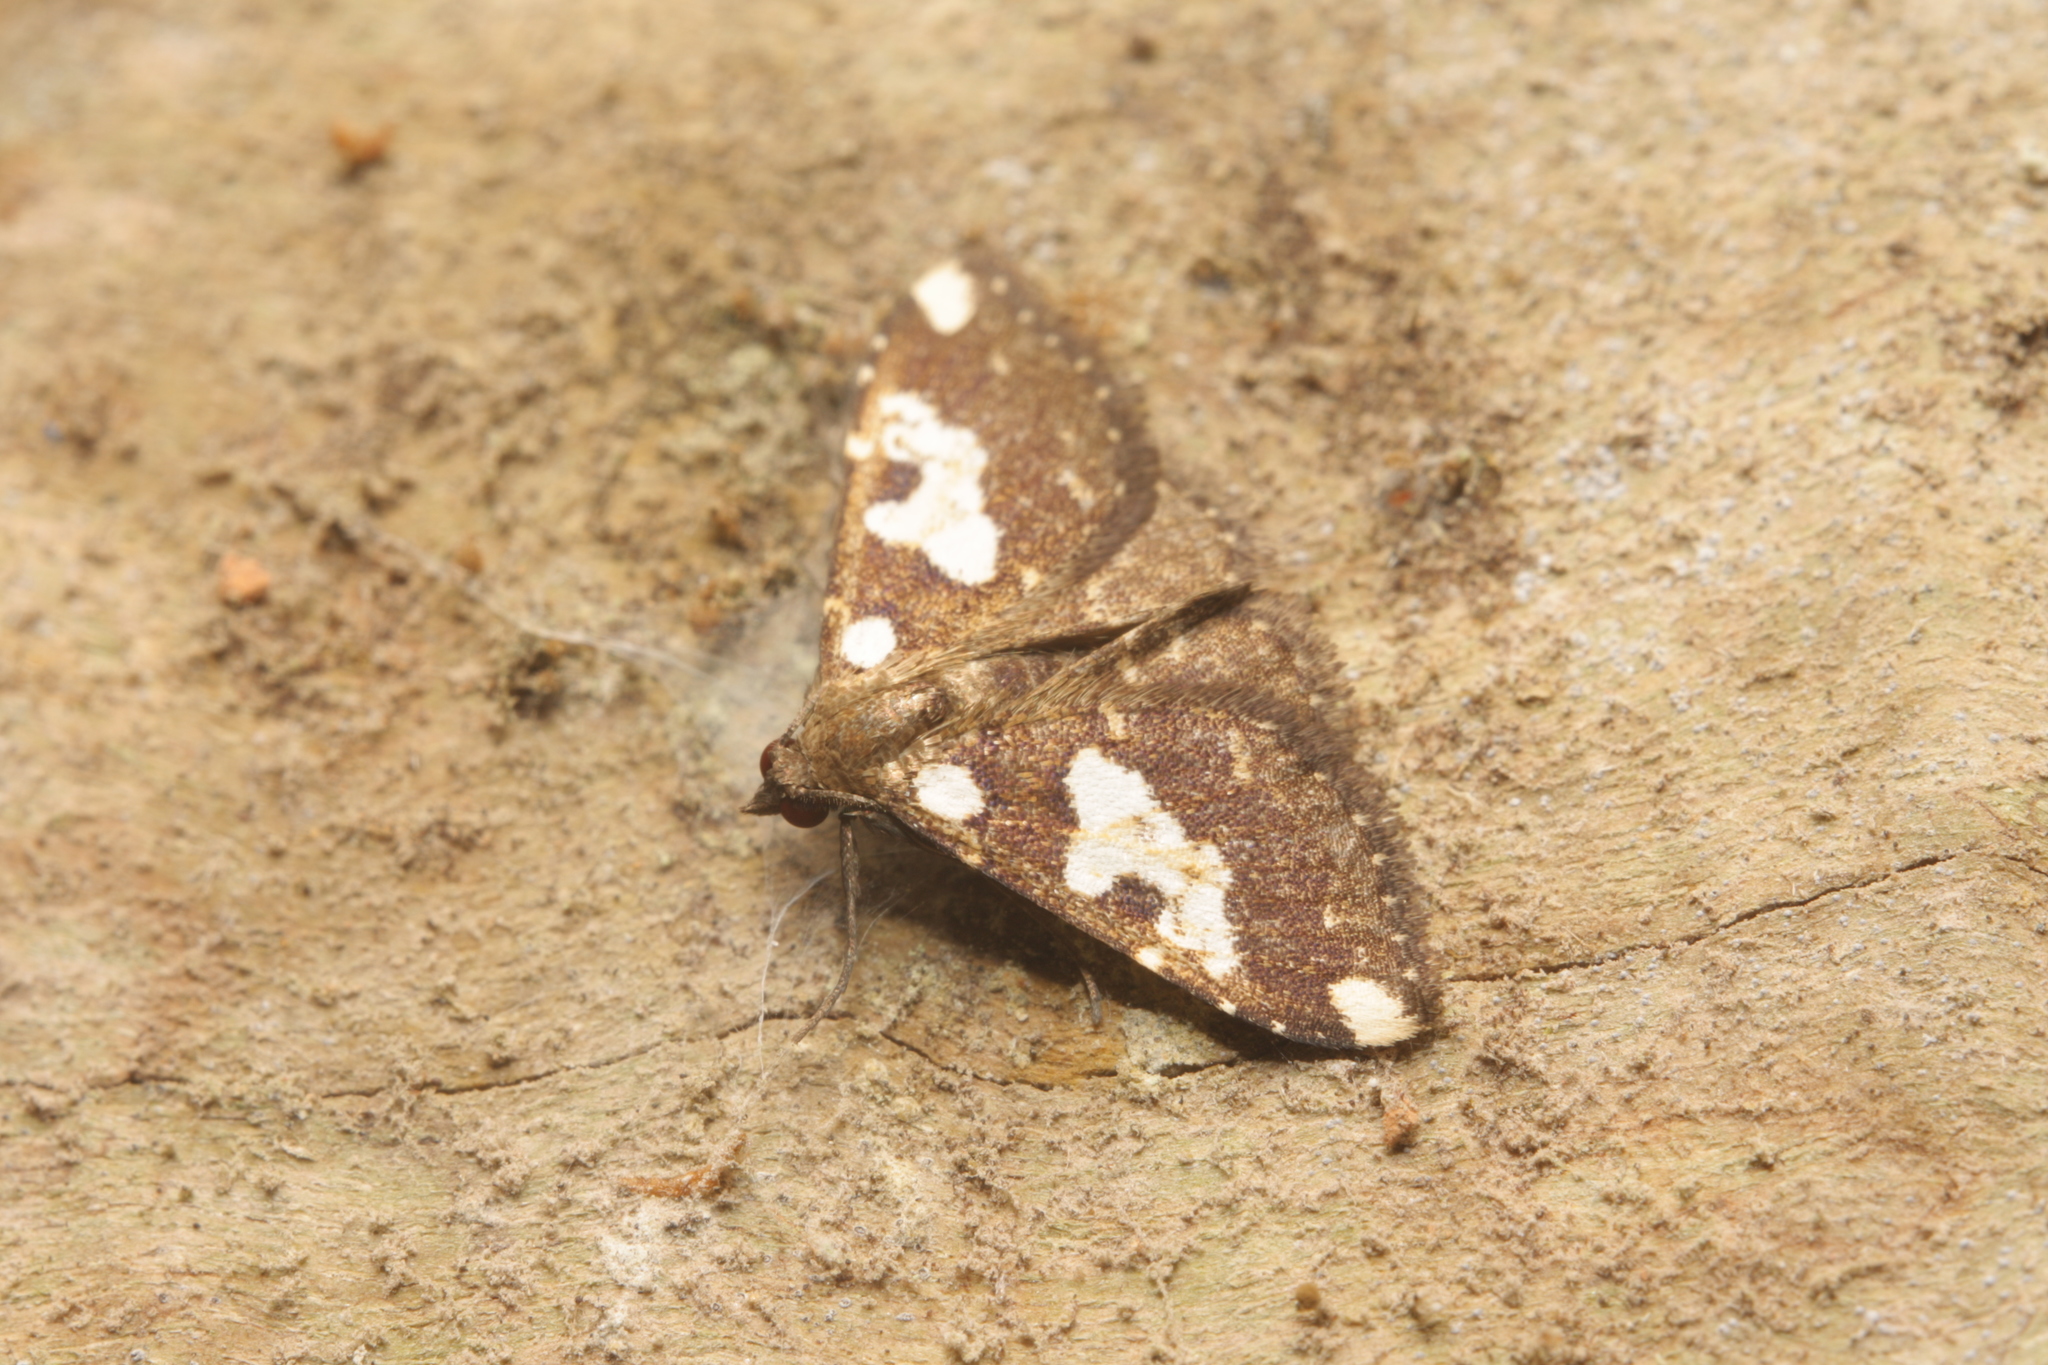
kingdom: Animalia
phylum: Arthropoda
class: Insecta
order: Lepidoptera
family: Erebidae
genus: Ostha
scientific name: Ostha rama
